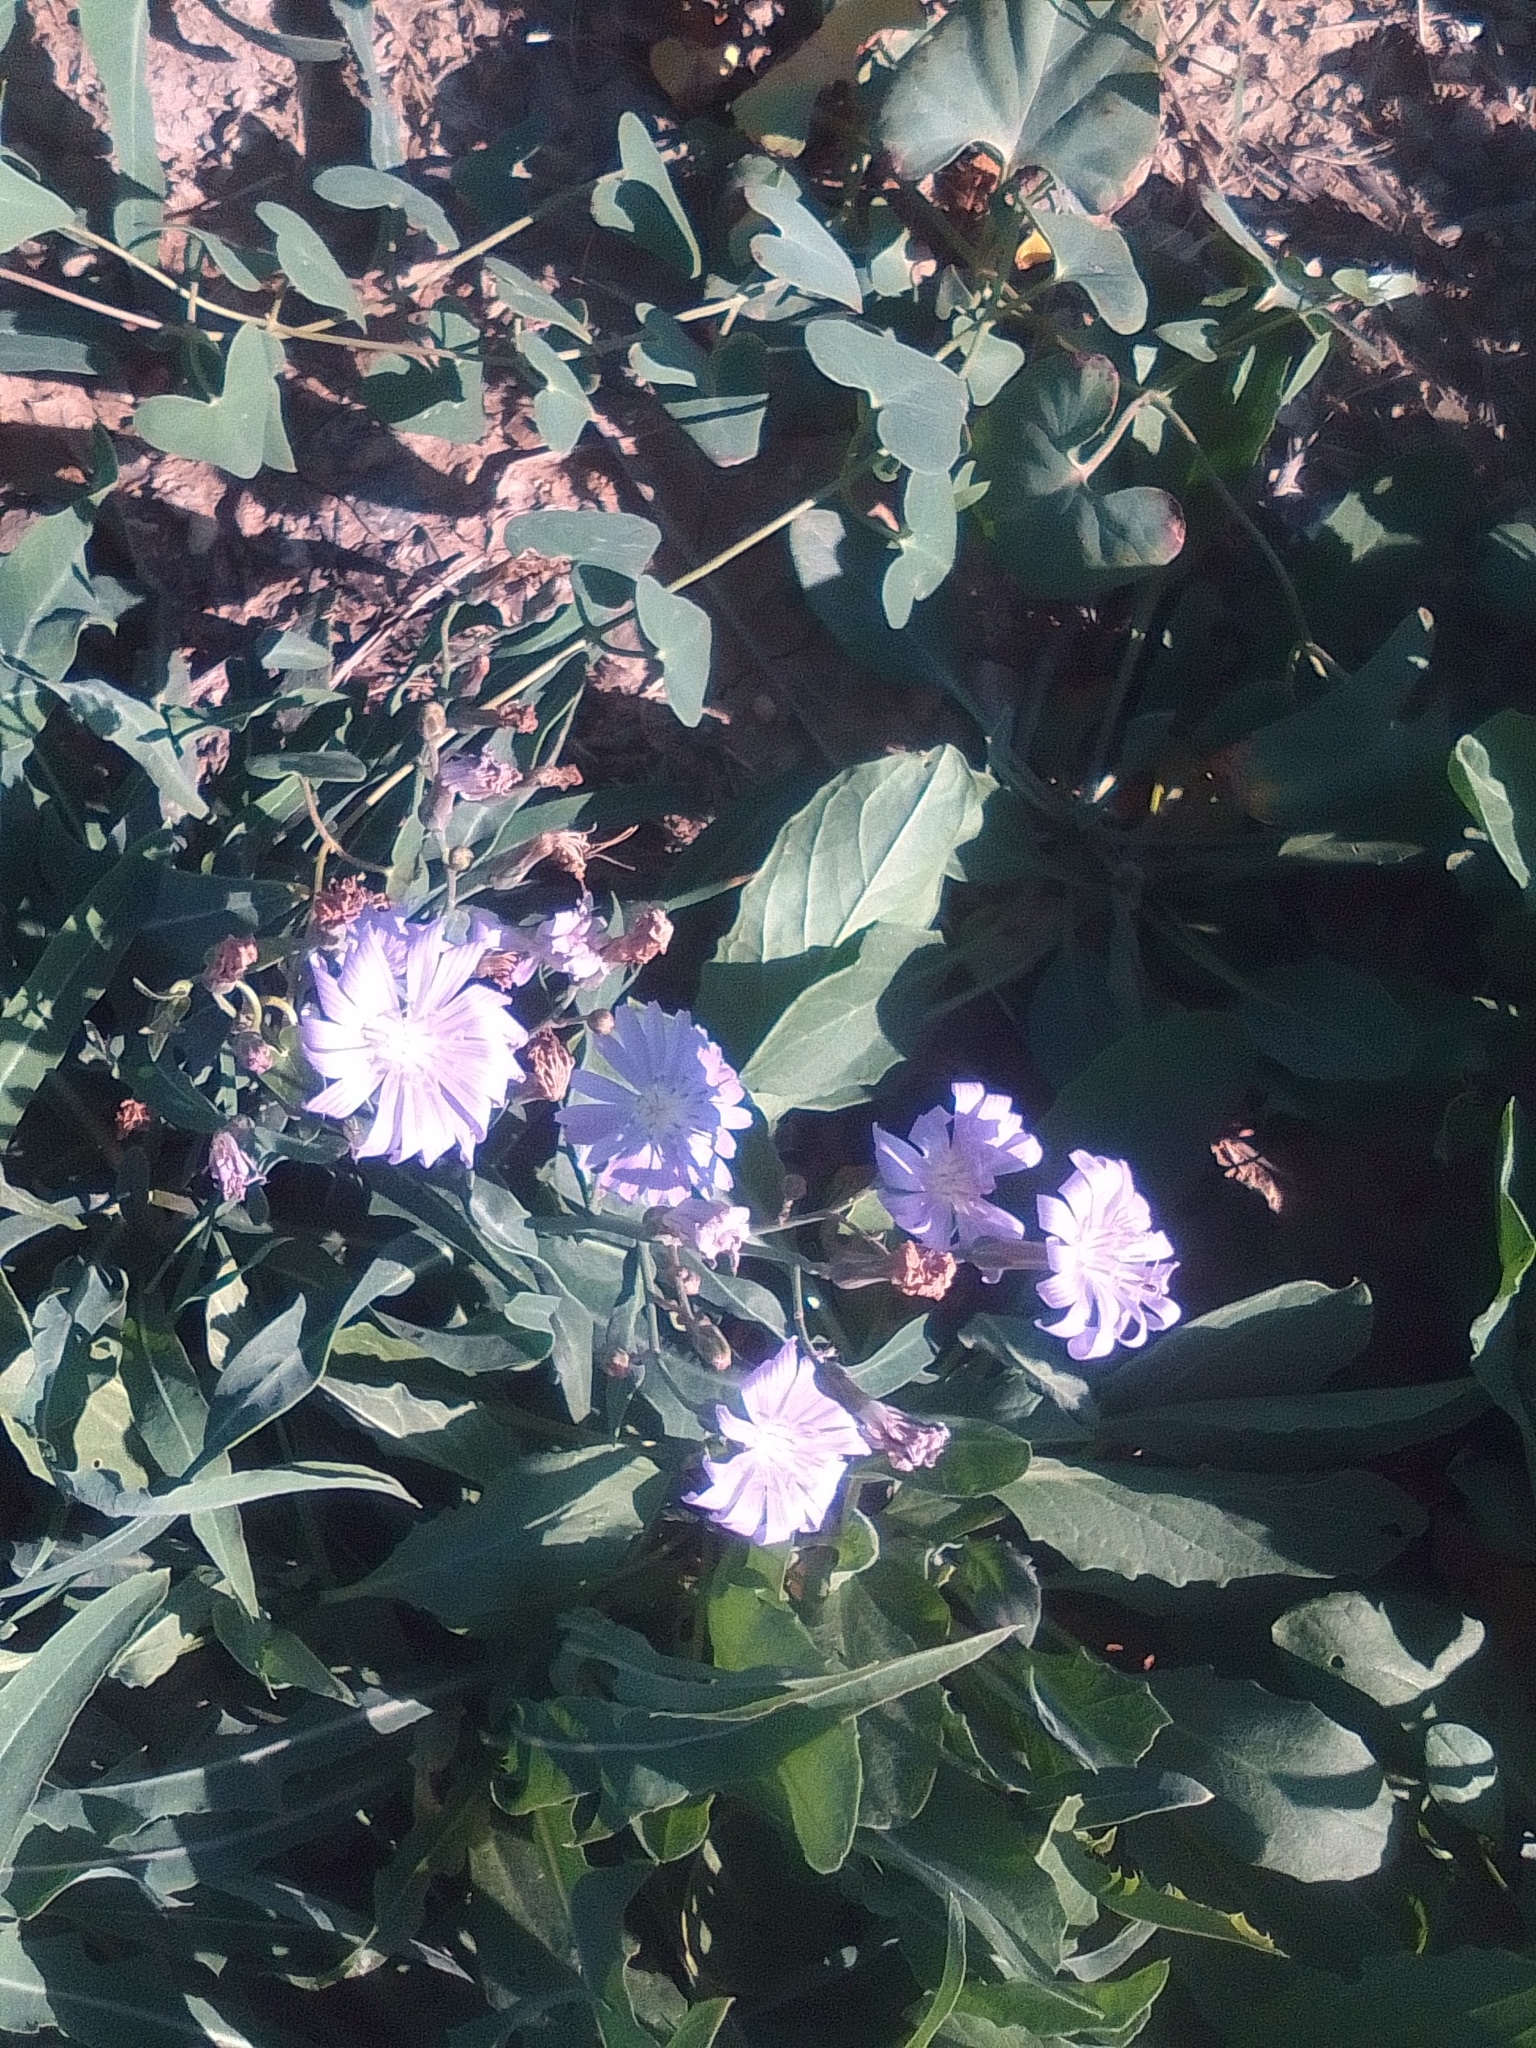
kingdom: Plantae
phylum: Tracheophyta
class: Magnoliopsida
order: Asterales
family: Asteraceae
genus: Lactuca
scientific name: Lactuca tatarica
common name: Blue lettuce
